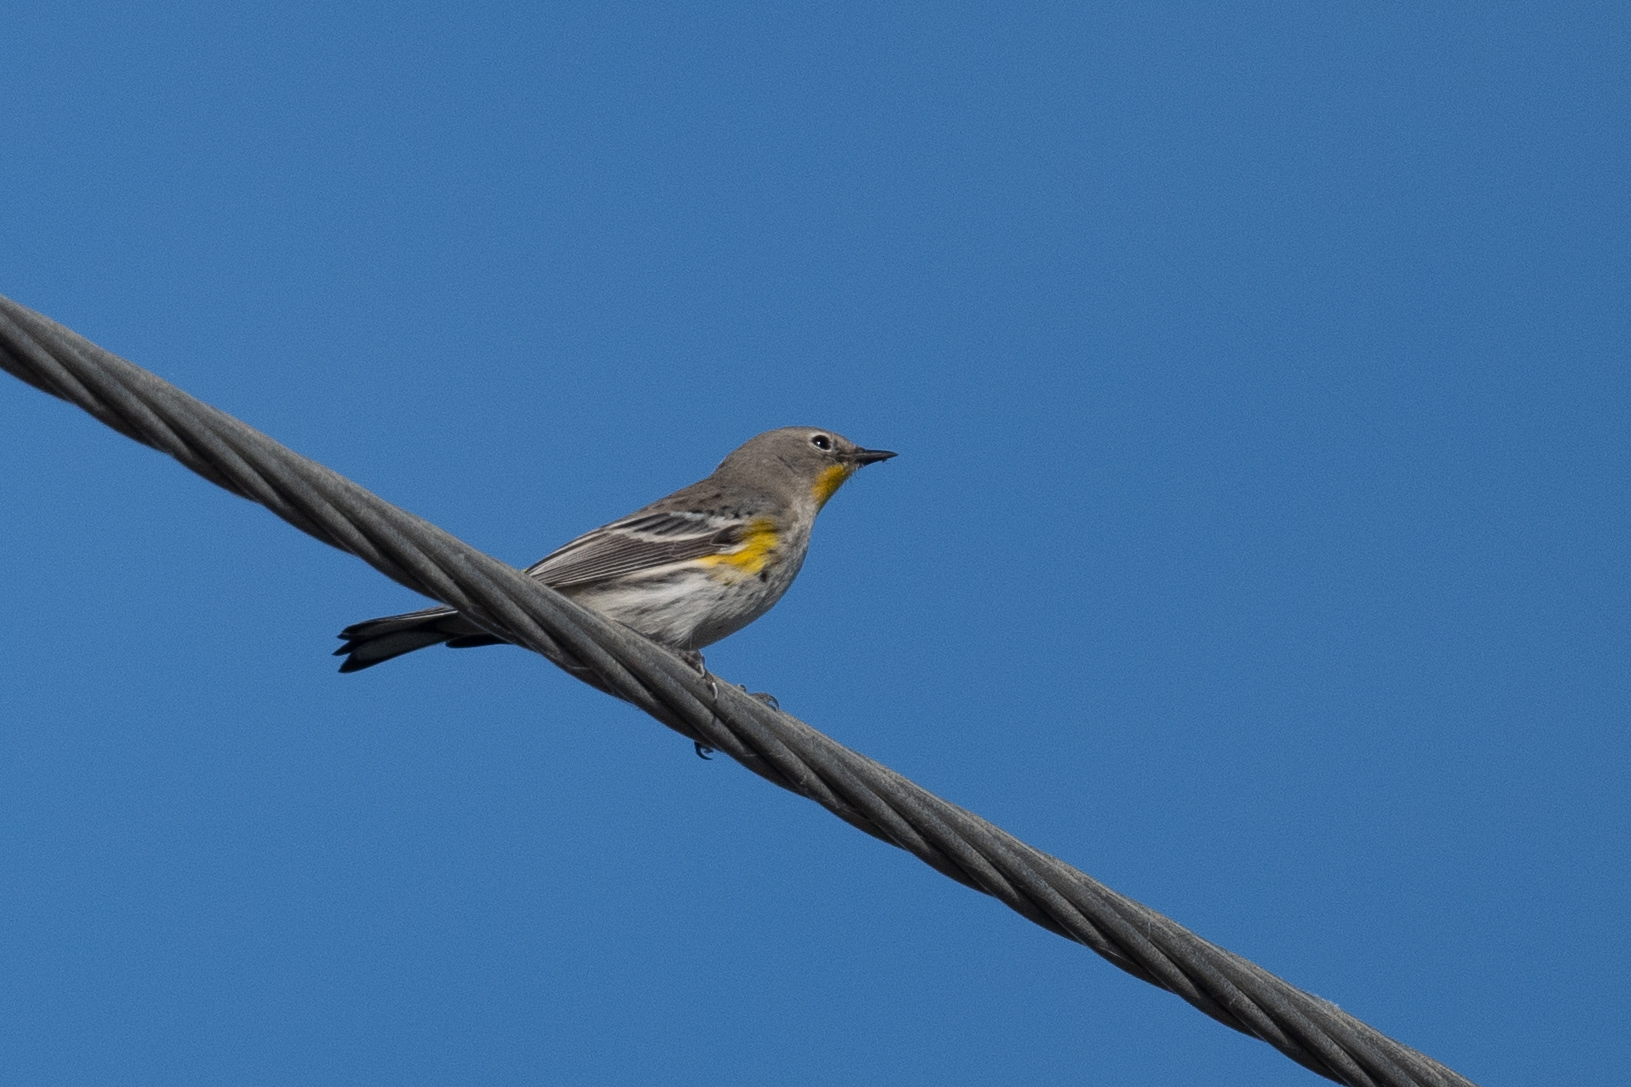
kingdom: Animalia
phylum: Chordata
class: Aves
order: Passeriformes
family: Parulidae
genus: Setophaga
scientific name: Setophaga coronata
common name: Myrtle warbler
